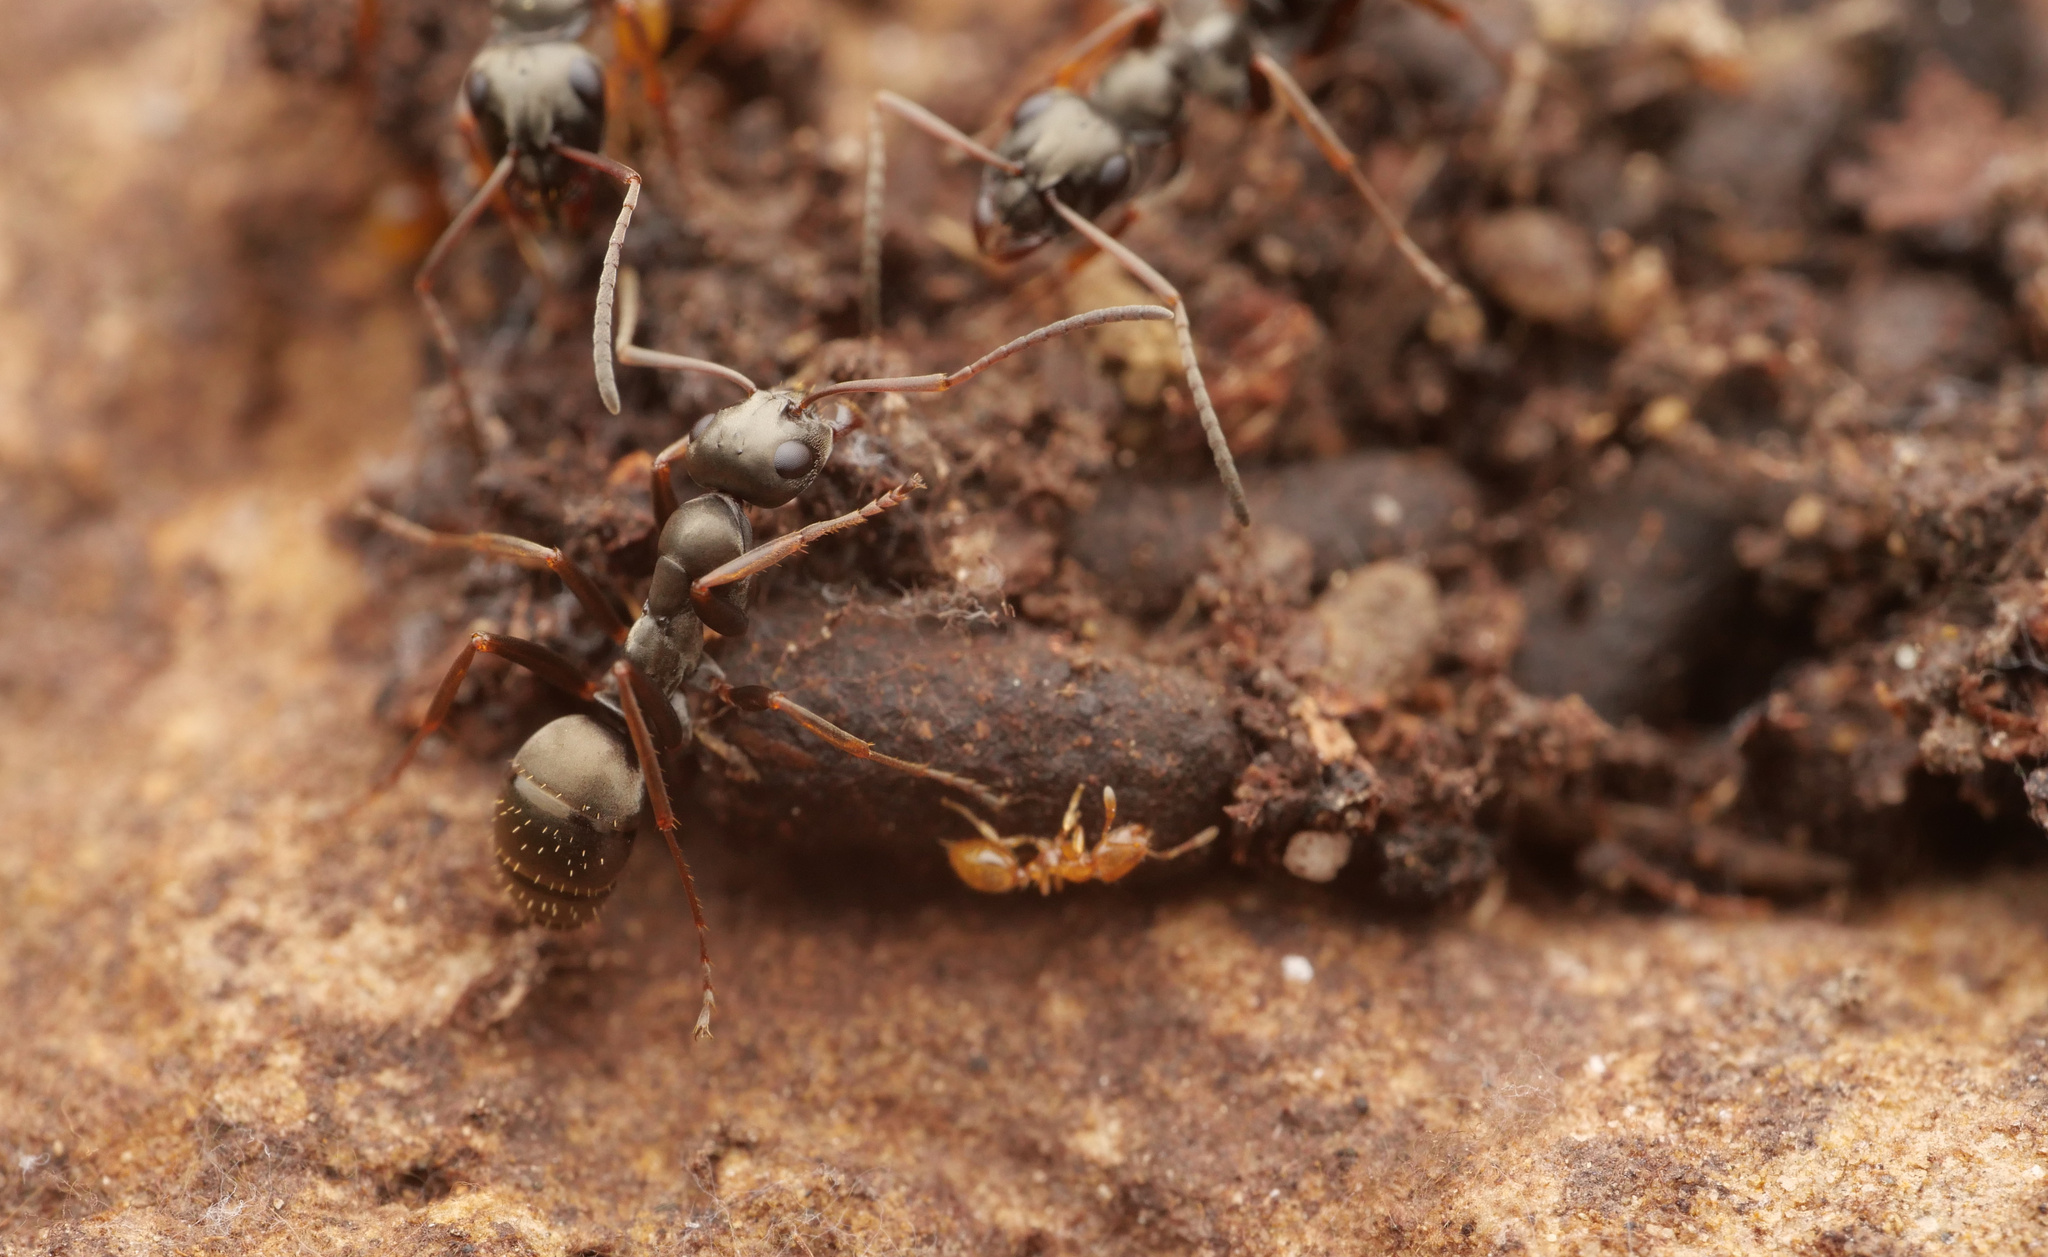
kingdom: Animalia
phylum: Arthropoda
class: Insecta
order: Hymenoptera
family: Formicidae
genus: Formica
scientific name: Formica fusca
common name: Silky ant
